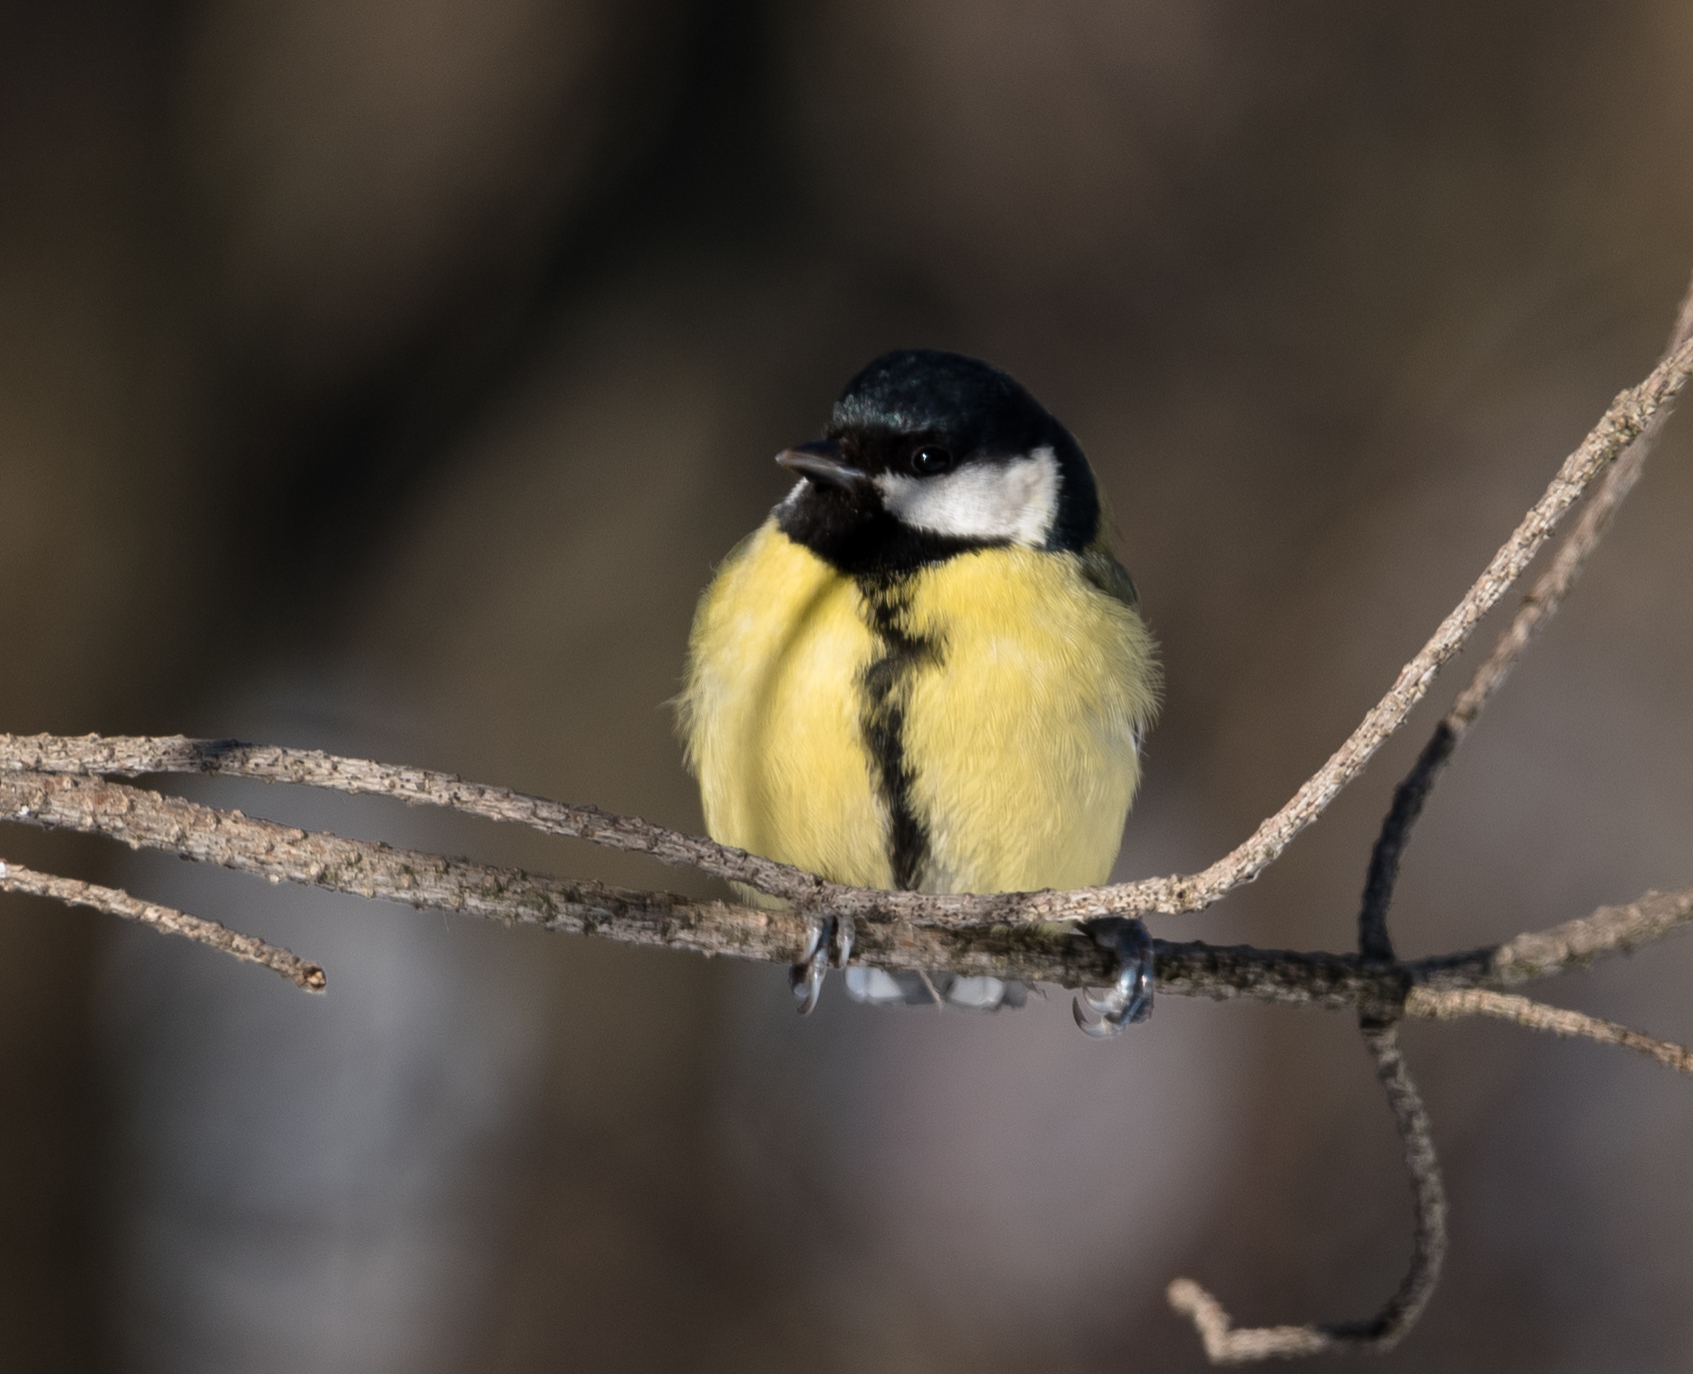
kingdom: Animalia
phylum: Chordata
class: Aves
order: Passeriformes
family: Paridae
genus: Parus
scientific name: Parus major
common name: Great tit
